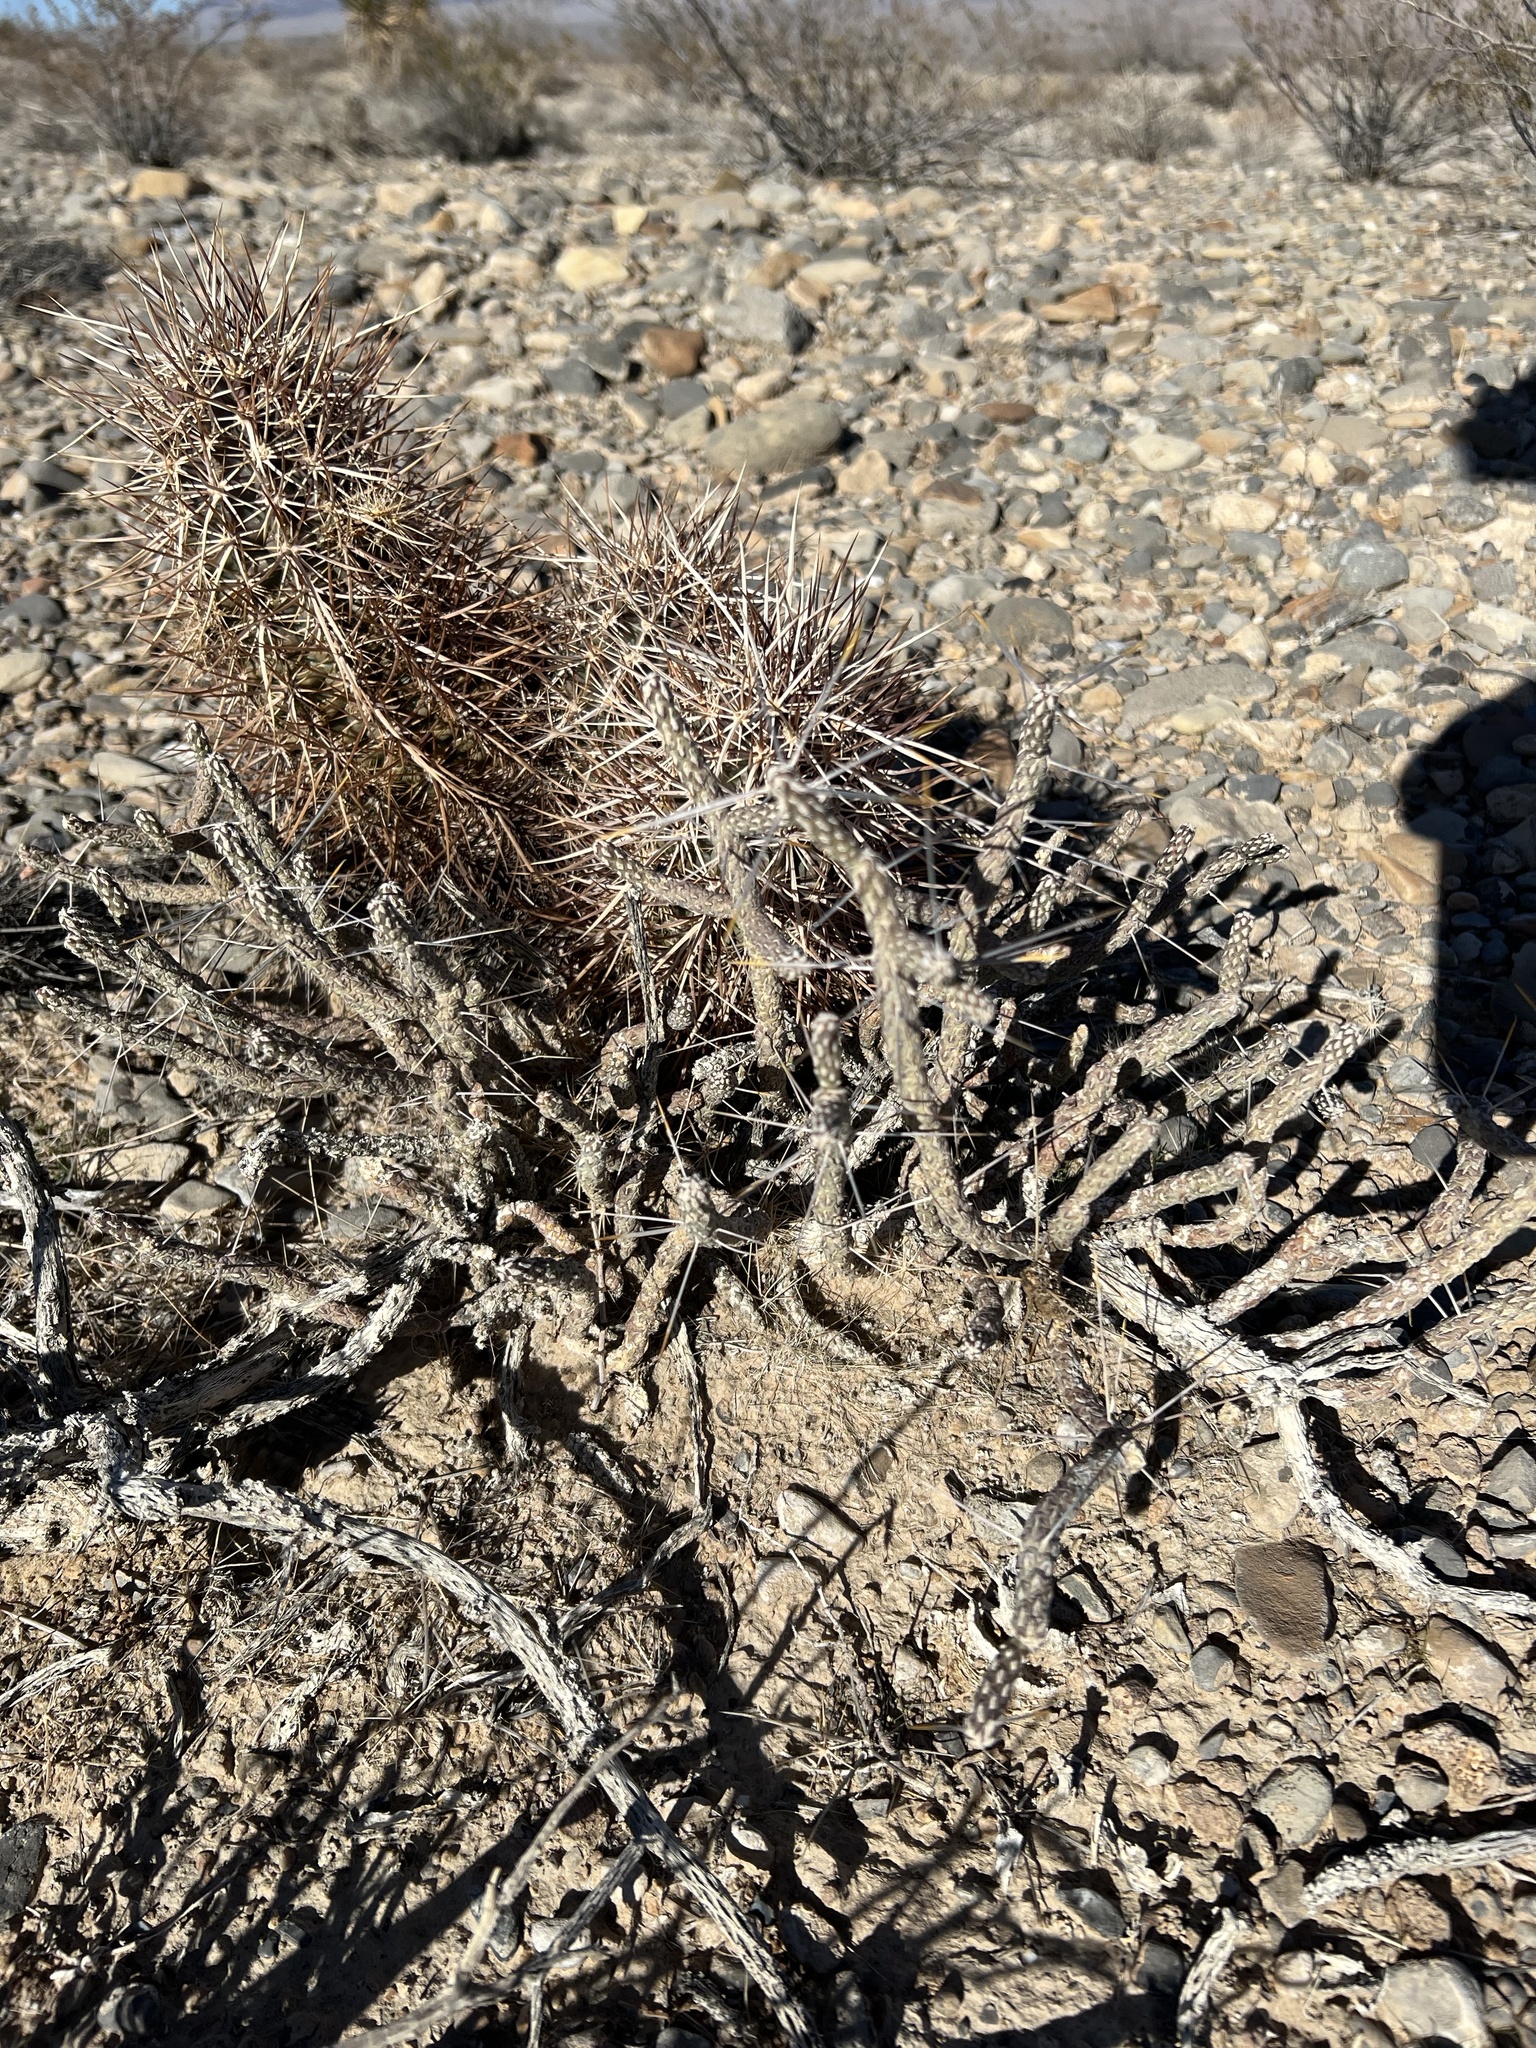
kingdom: Plantae
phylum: Tracheophyta
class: Magnoliopsida
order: Caryophyllales
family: Cactaceae
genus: Cylindropuntia
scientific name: Cylindropuntia ramosissima
